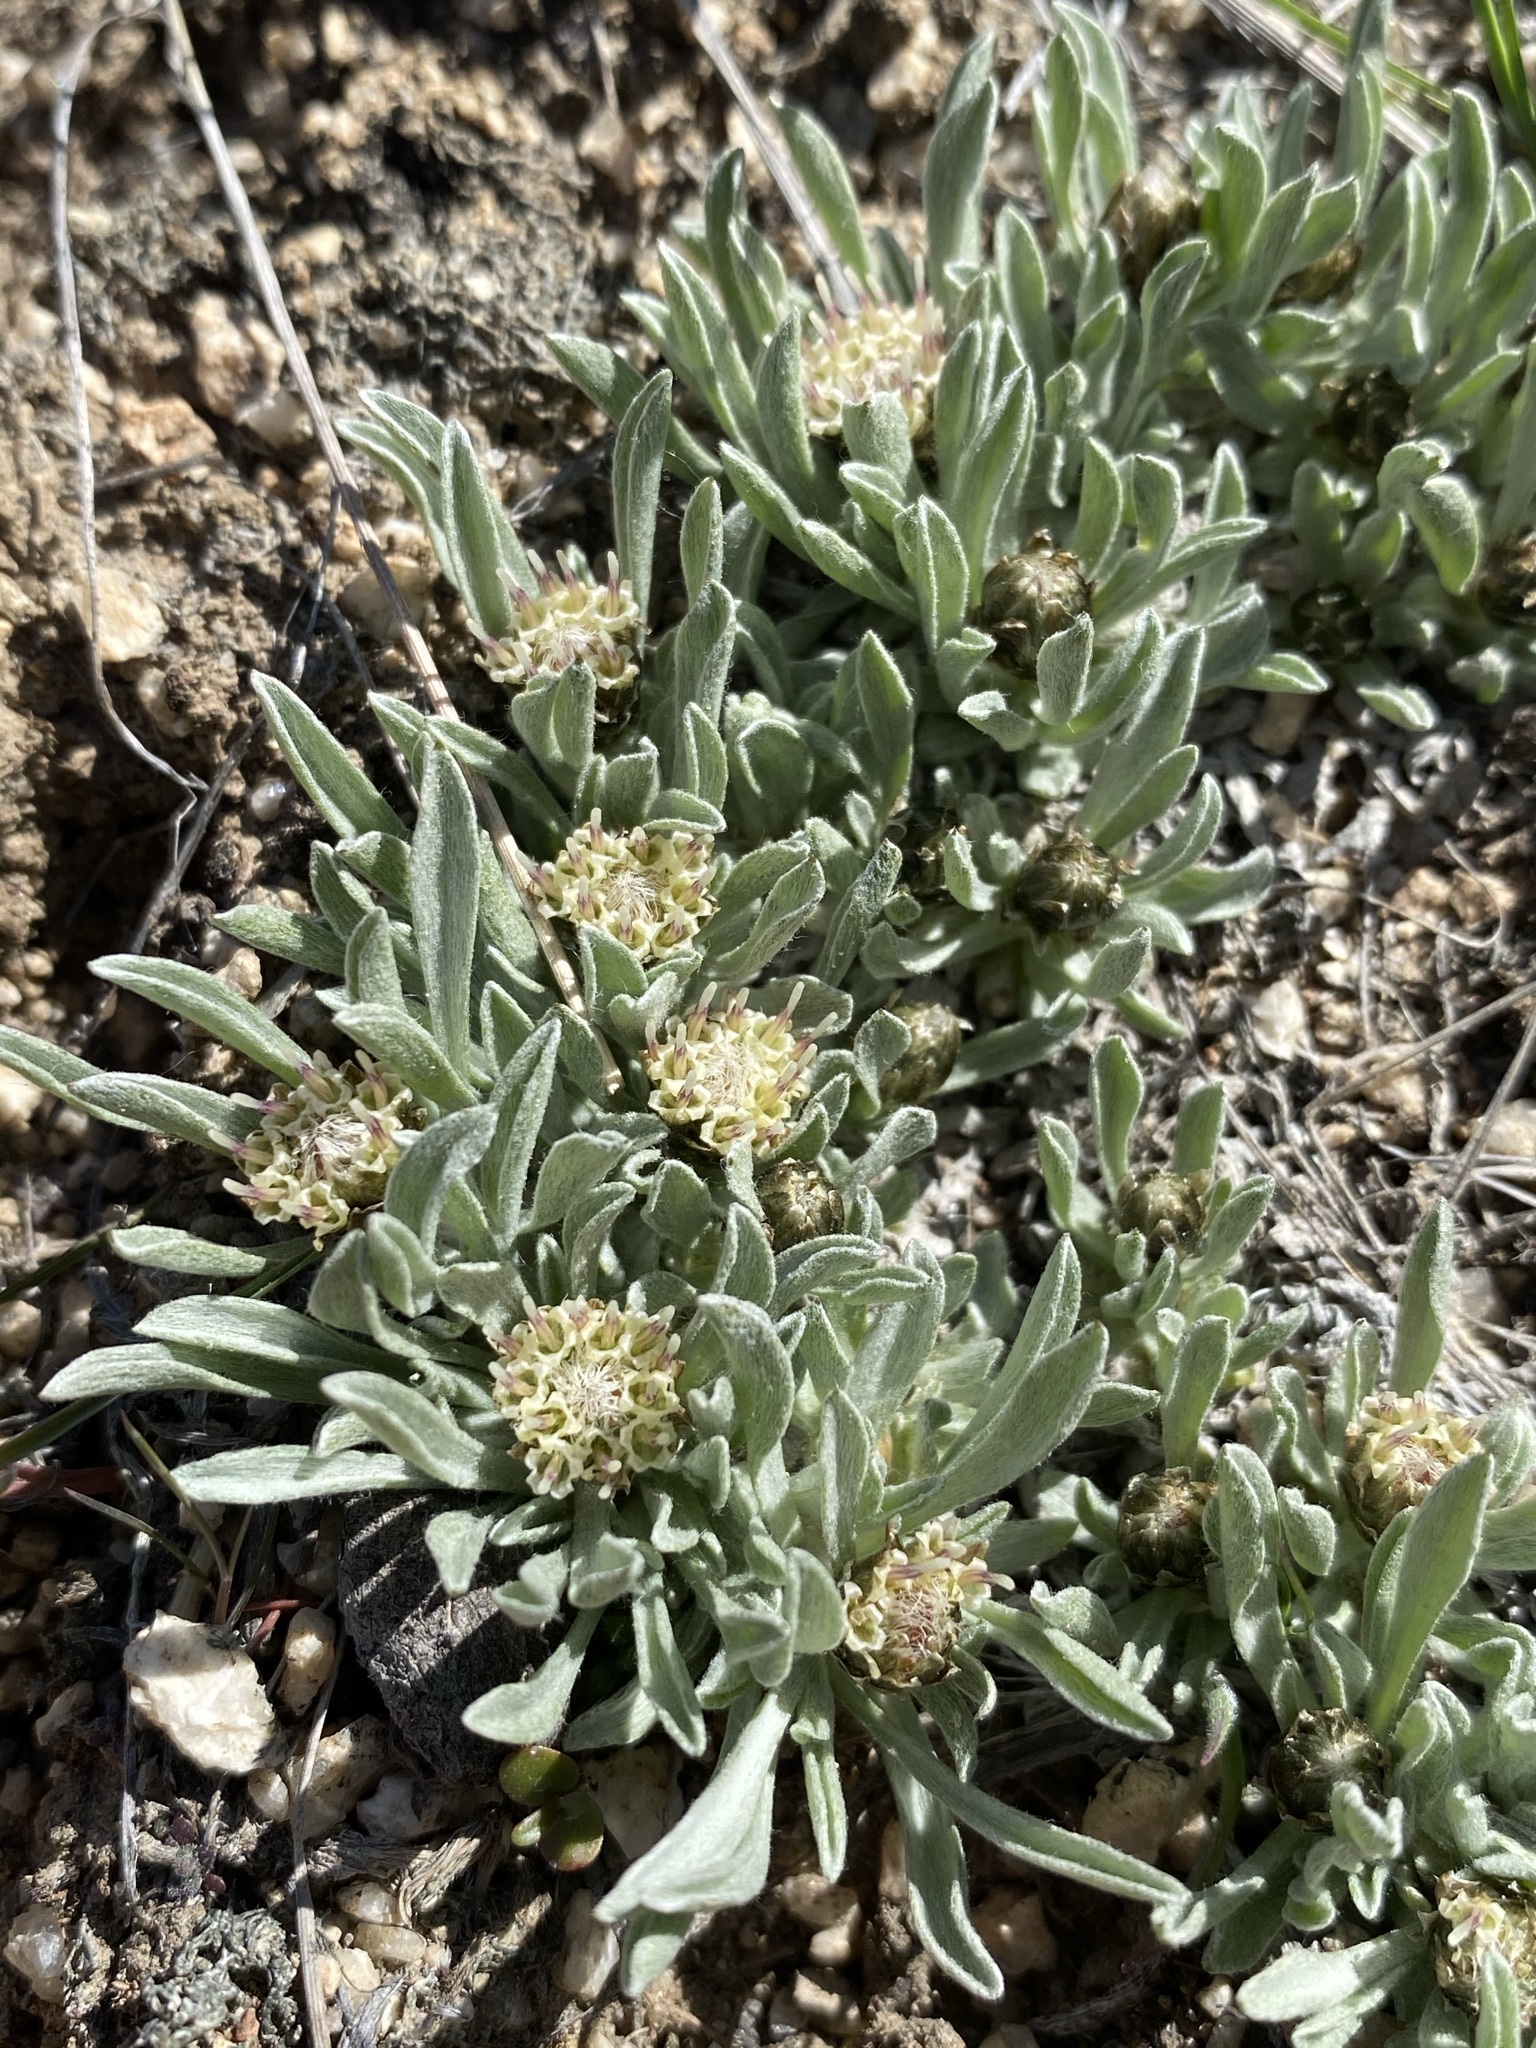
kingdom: Plantae
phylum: Tracheophyta
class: Magnoliopsida
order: Asterales
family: Asteraceae
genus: Antennaria
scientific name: Antennaria dimorpha
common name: Cushion pussytoes
